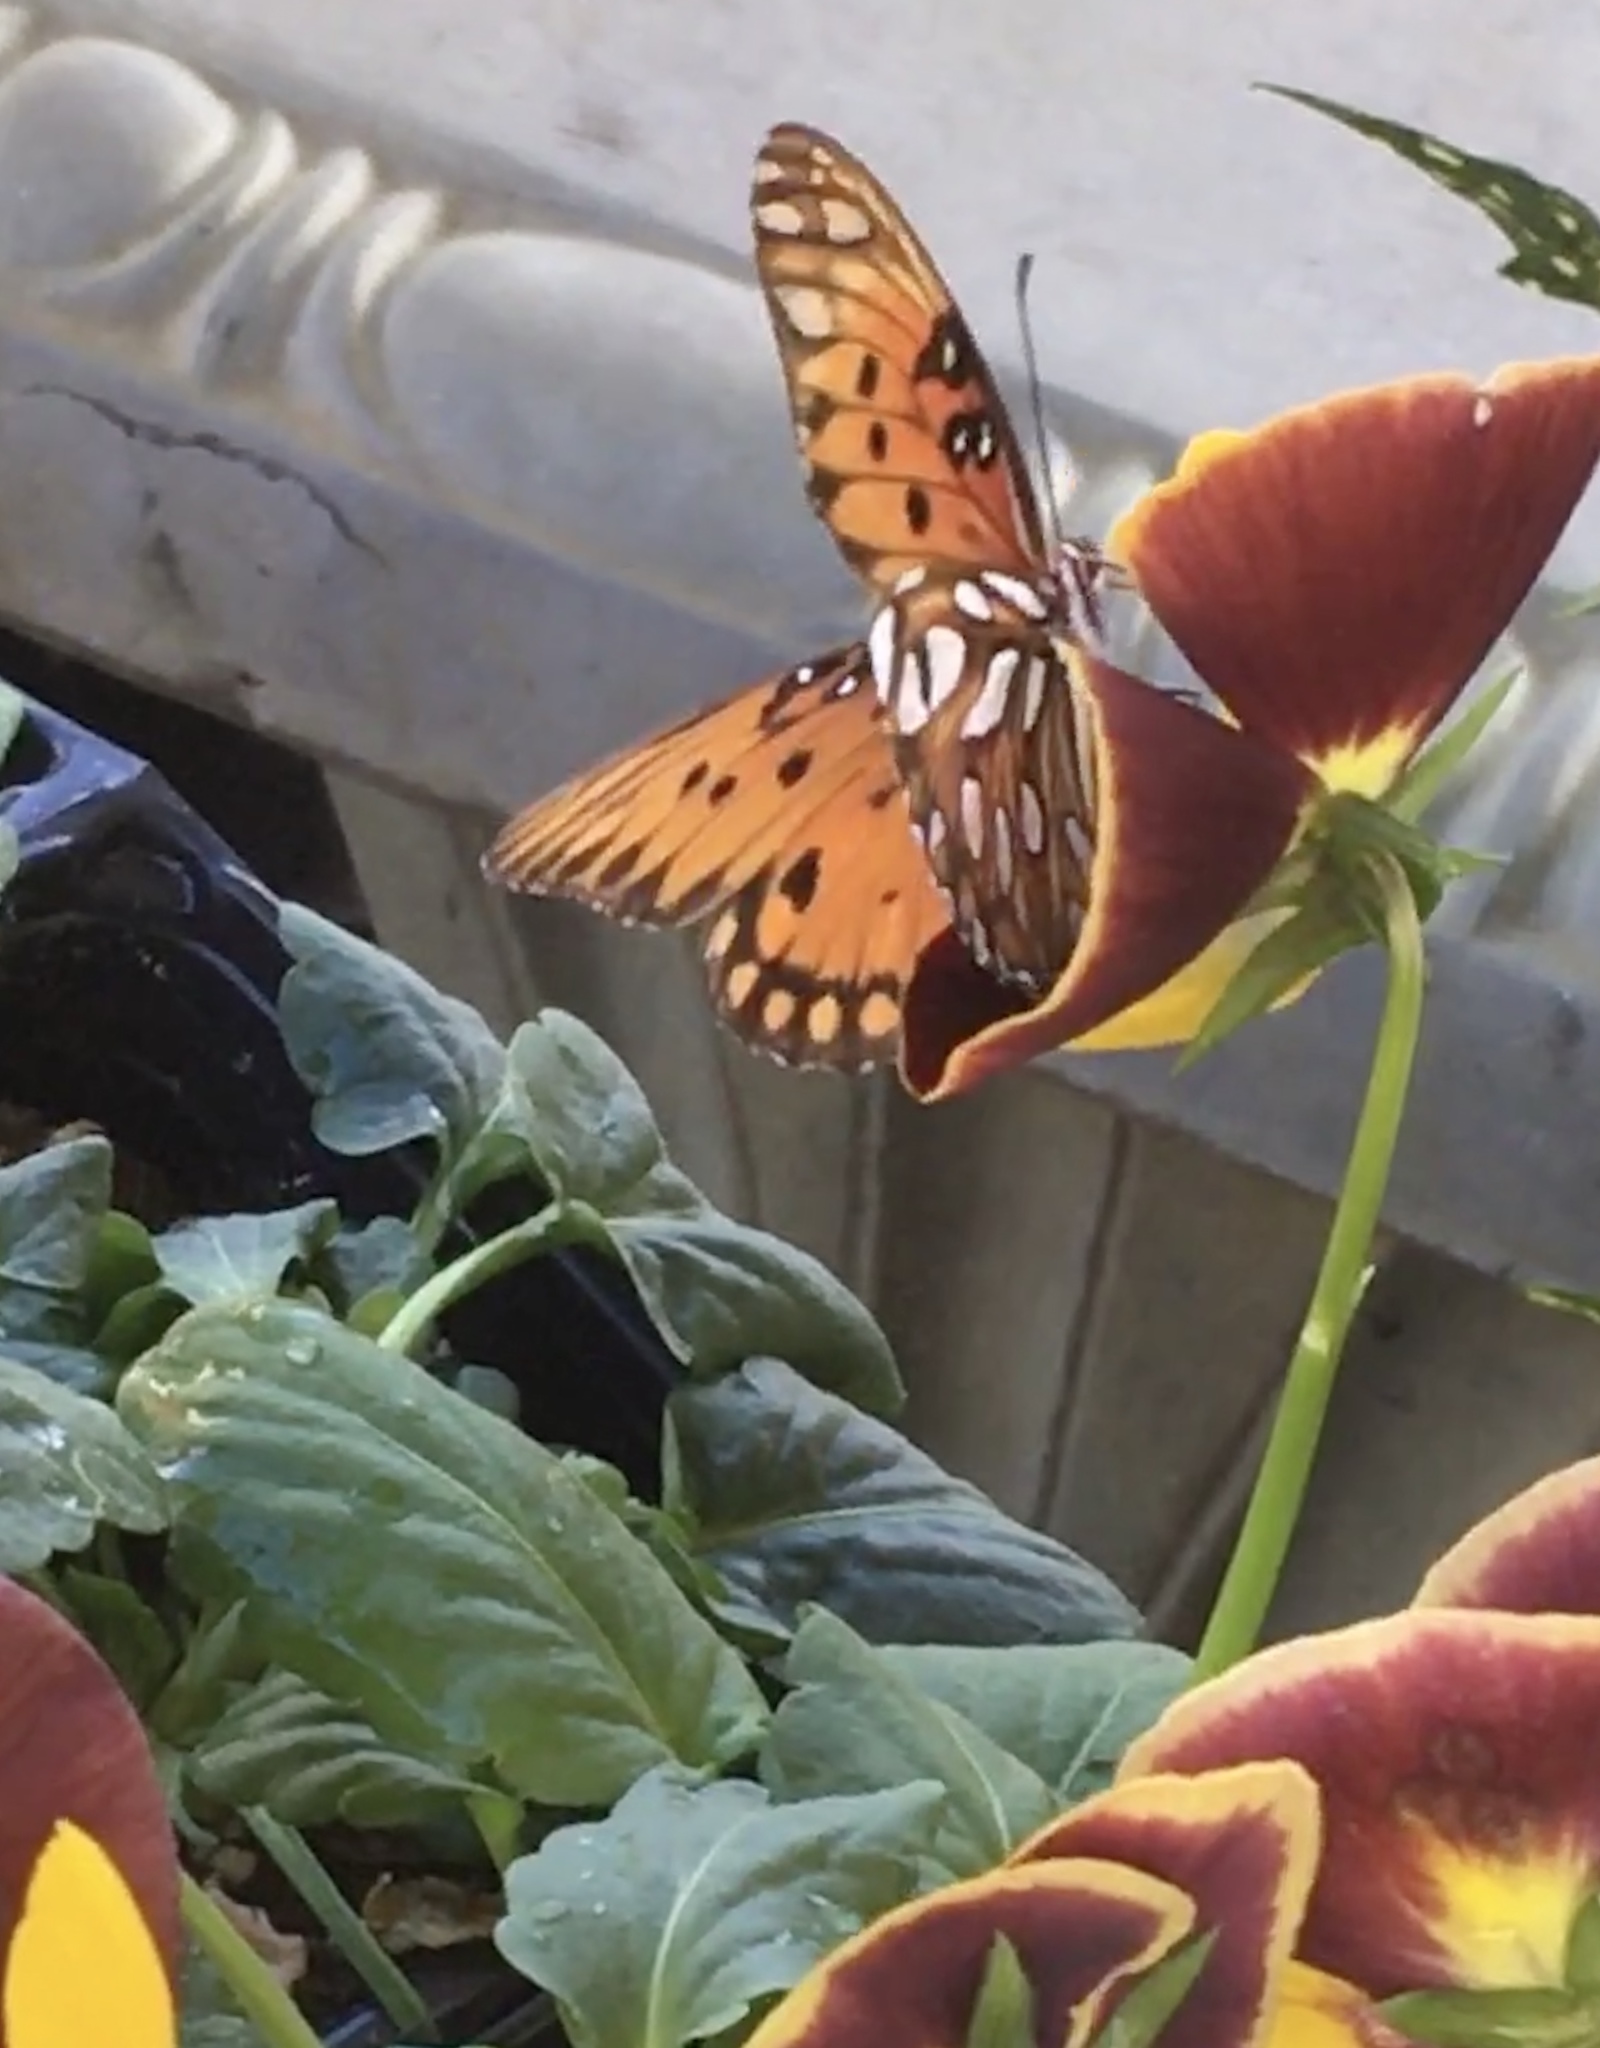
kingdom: Animalia
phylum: Arthropoda
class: Insecta
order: Lepidoptera
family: Nymphalidae
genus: Dione
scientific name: Dione vanillae
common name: Gulf fritillary
